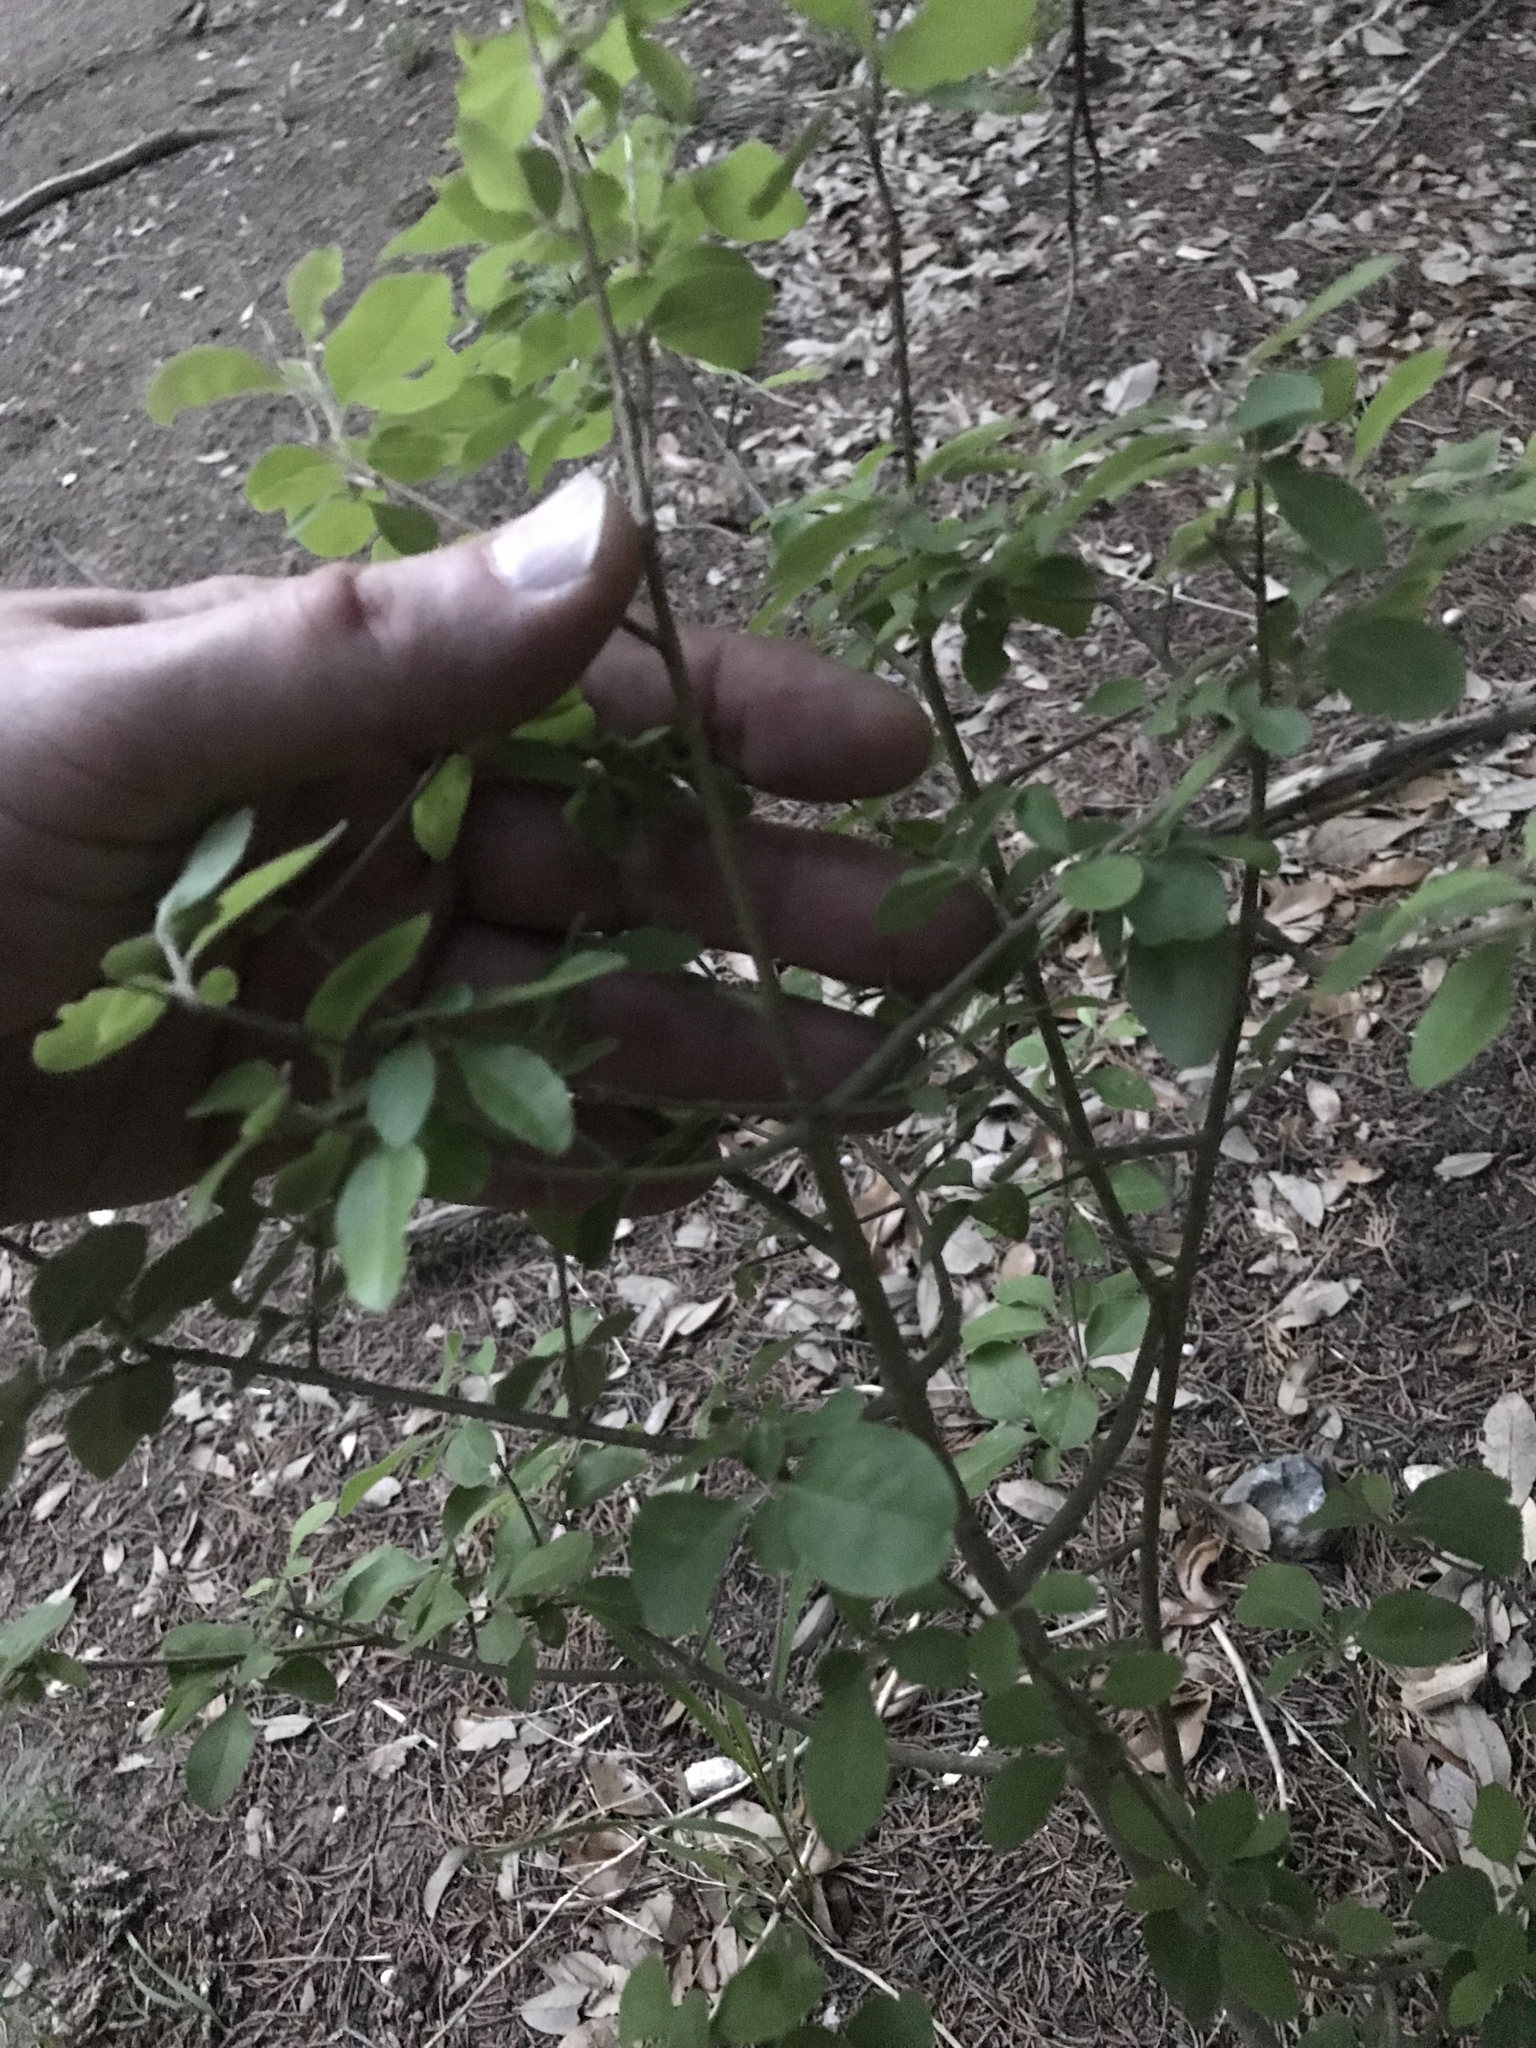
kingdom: Plantae
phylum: Tracheophyta
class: Magnoliopsida
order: Lamiales
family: Oleaceae
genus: Forestiera
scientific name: Forestiera pubescens
